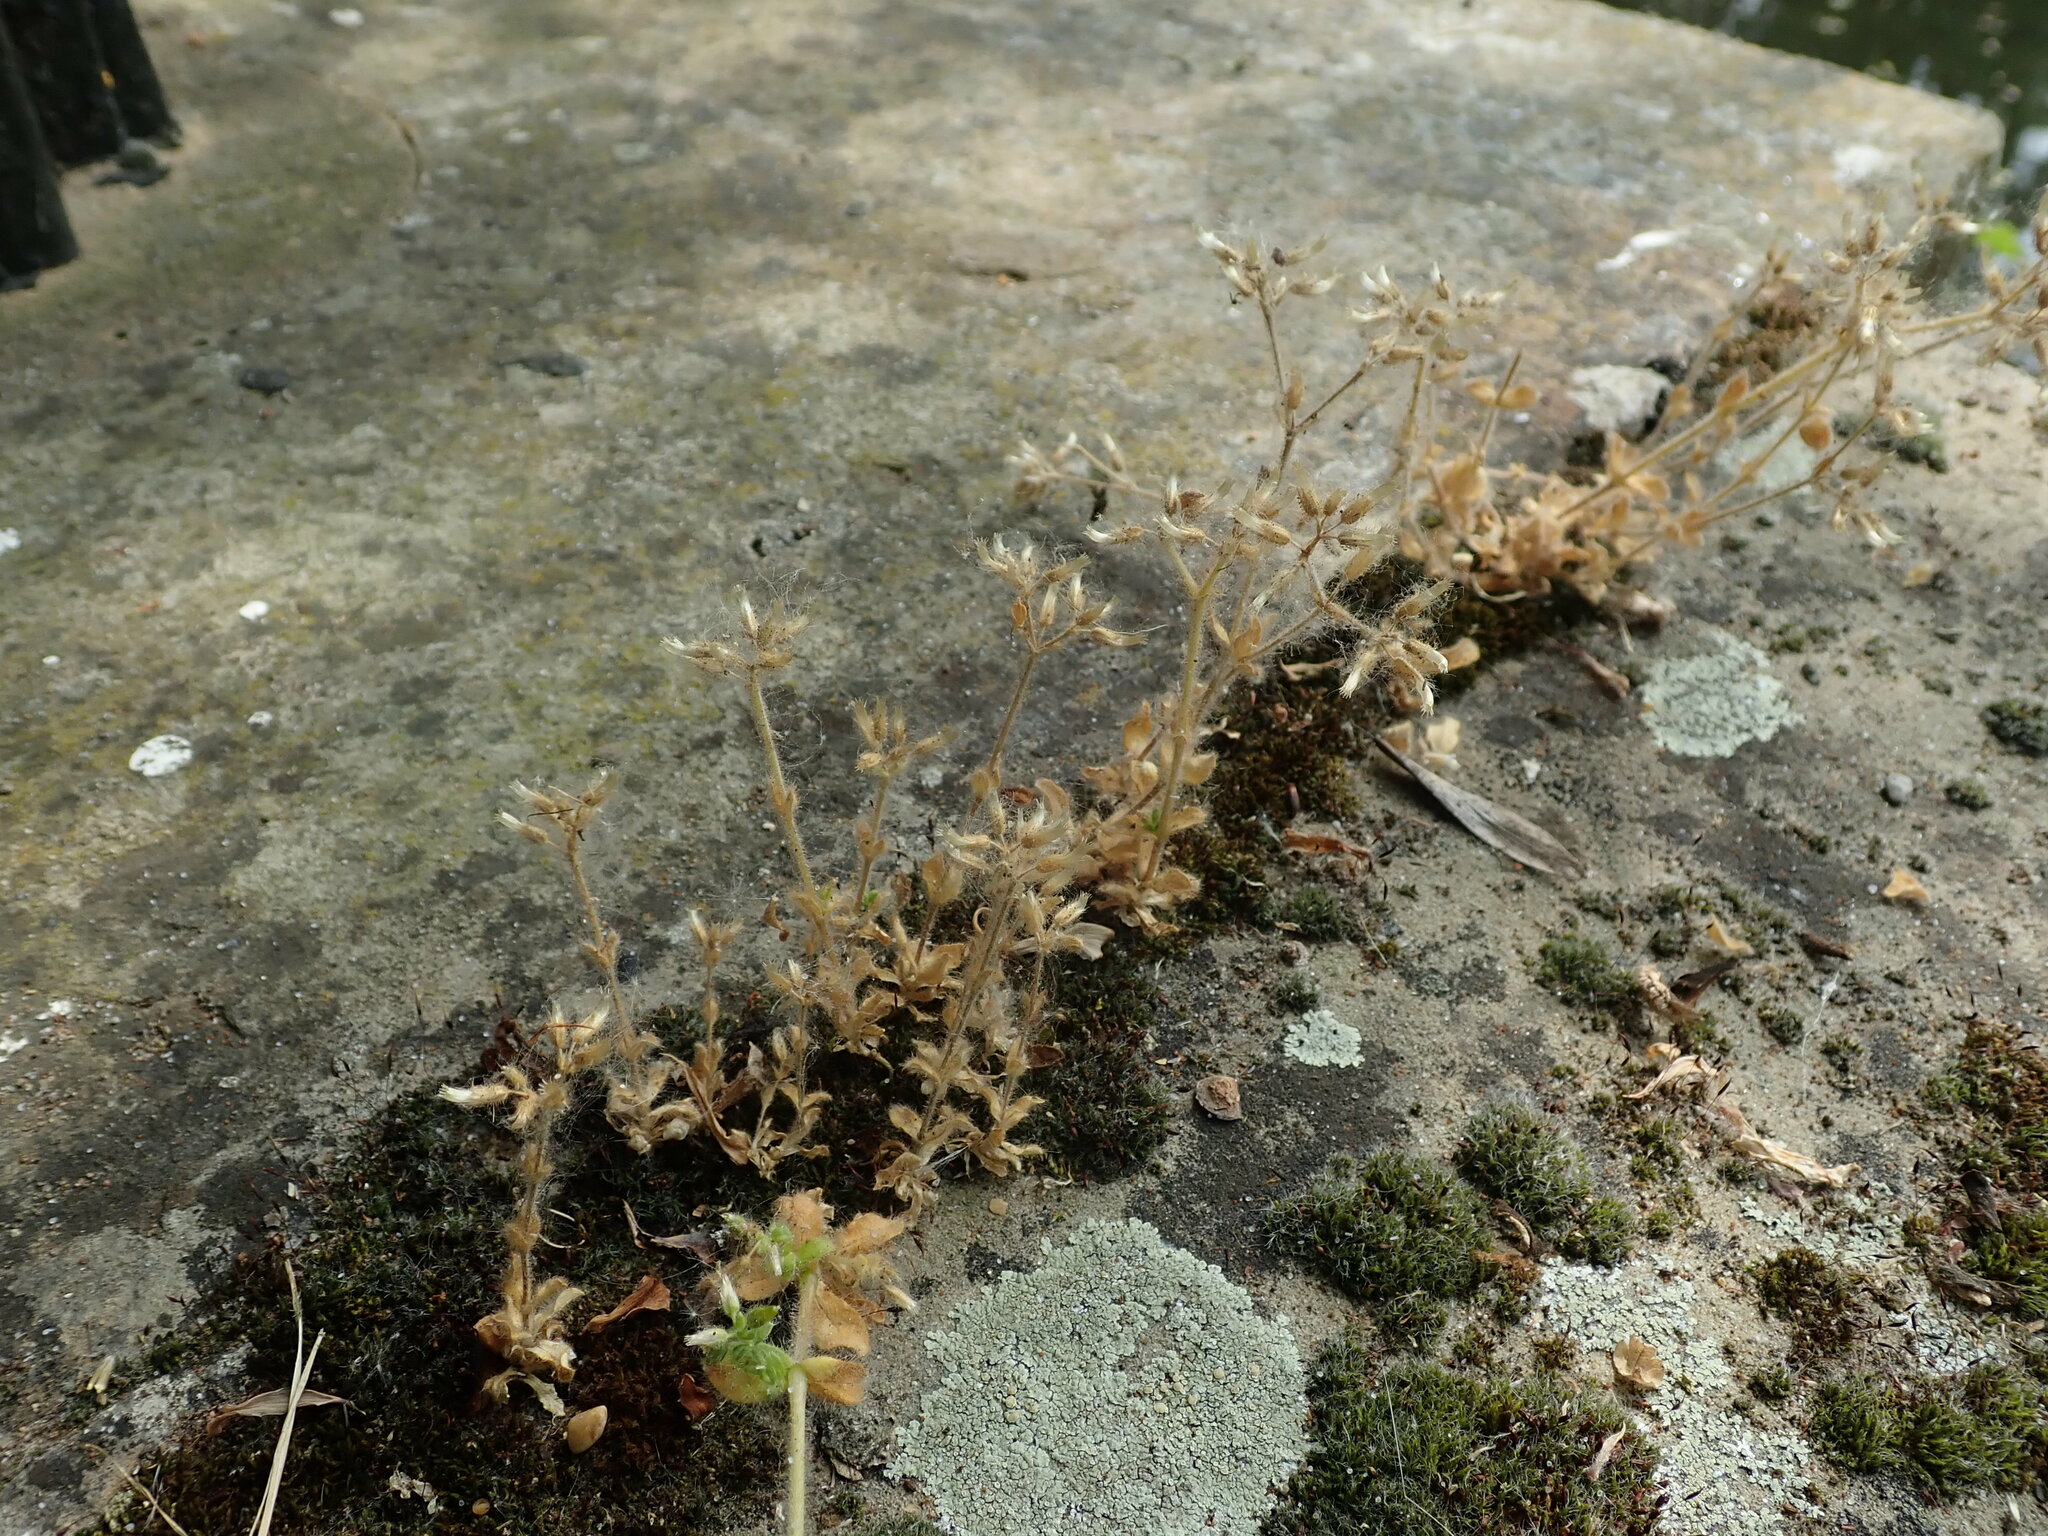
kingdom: Plantae
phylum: Tracheophyta
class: Magnoliopsida
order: Caryophyllales
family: Caryophyllaceae
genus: Cerastium
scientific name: Cerastium glomeratum
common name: Sticky chickweed
